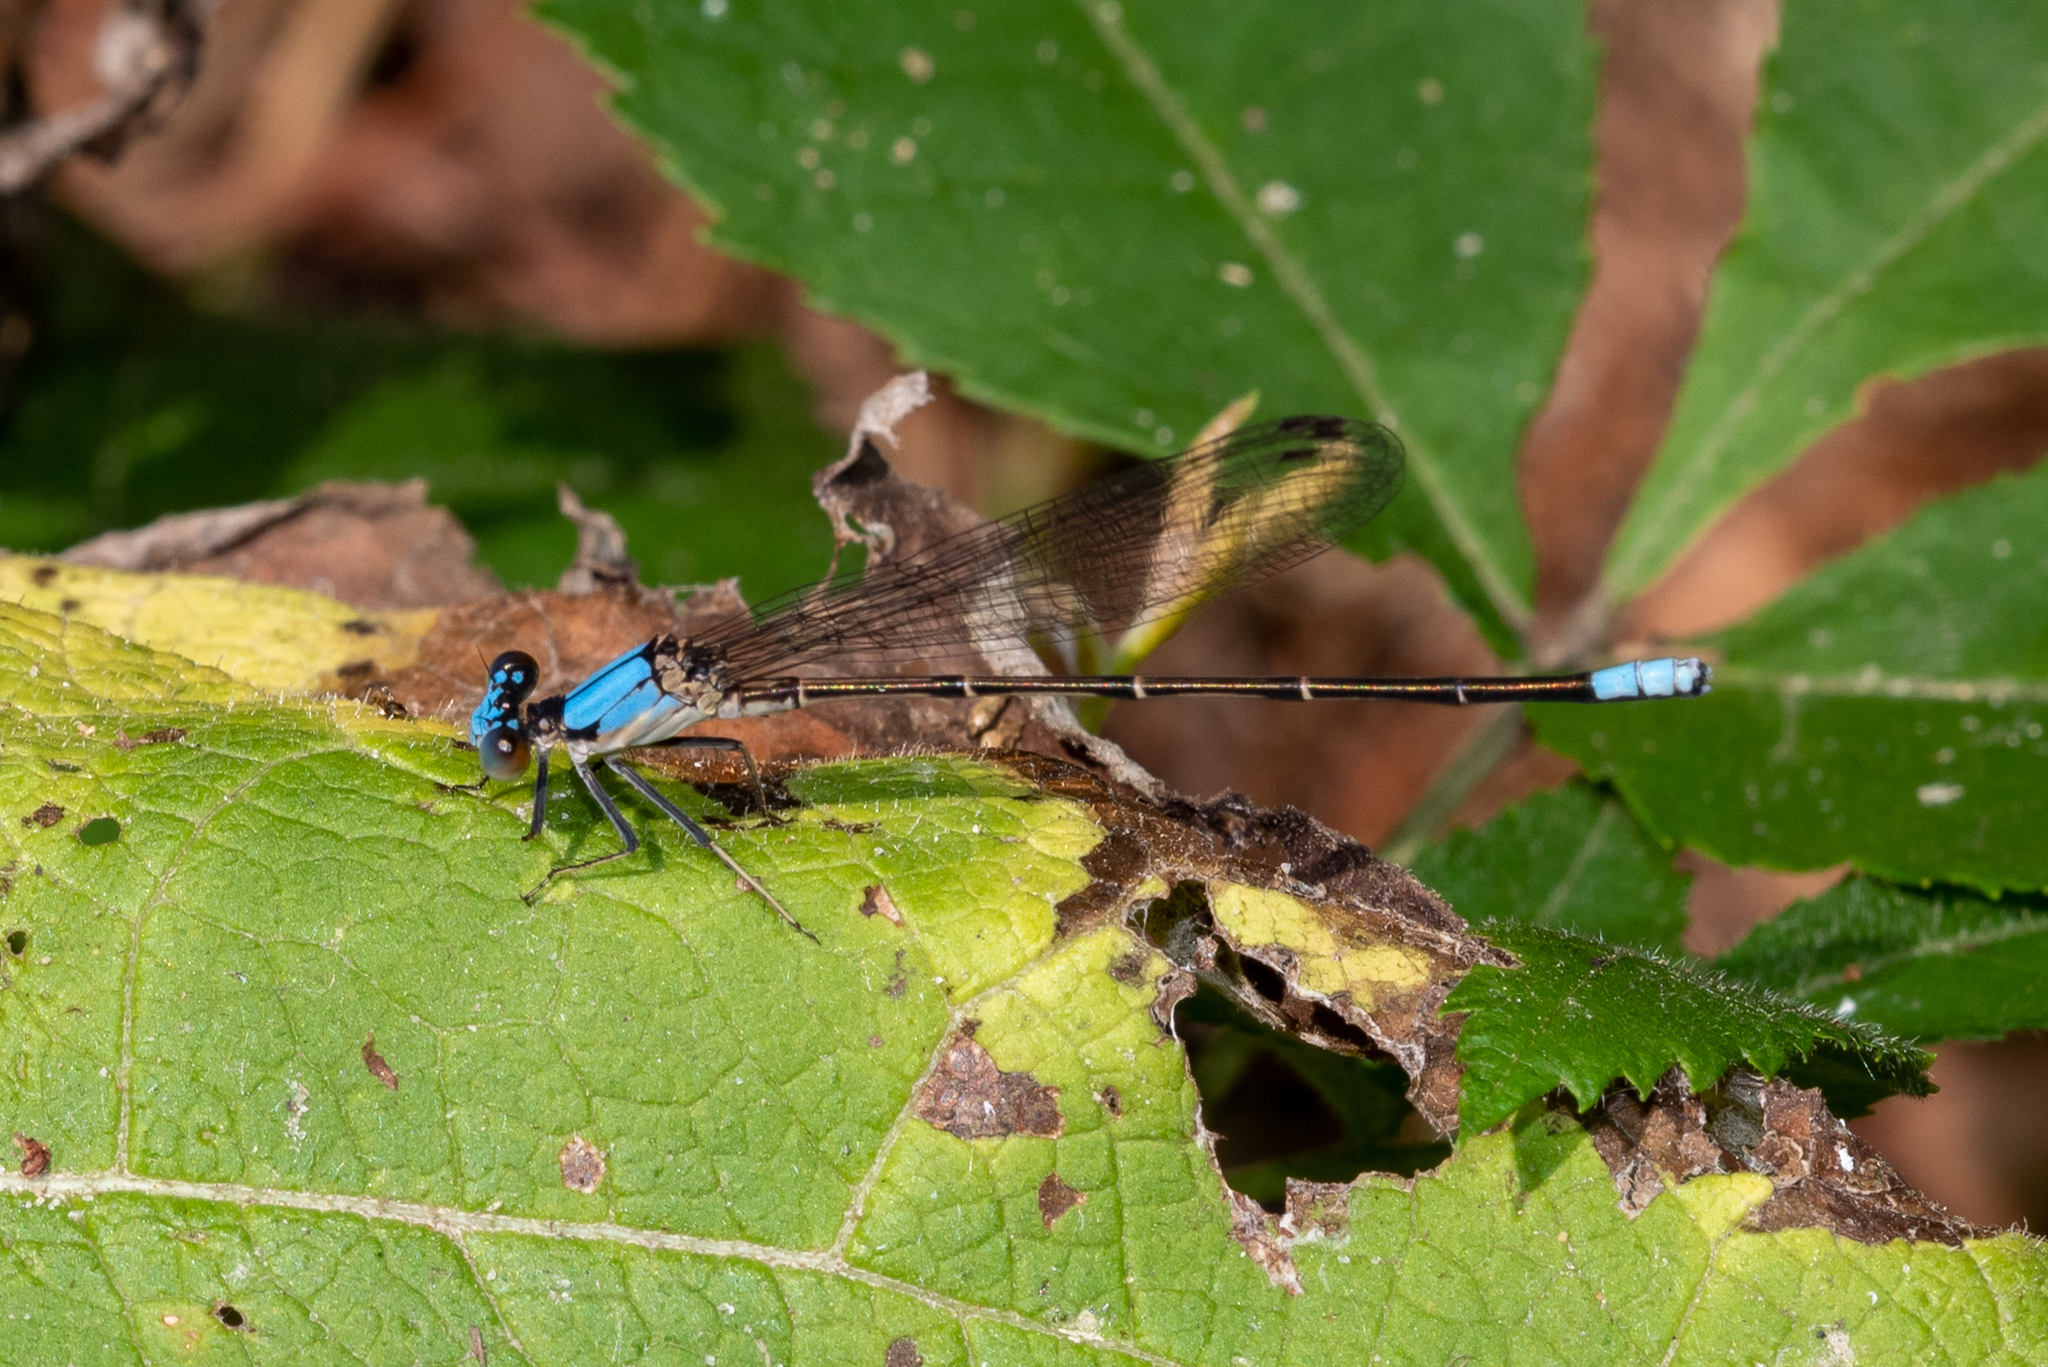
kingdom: Animalia
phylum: Arthropoda
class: Insecta
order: Odonata
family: Coenagrionidae
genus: Argia
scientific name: Argia apicalis
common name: Blue-fronted dancer
